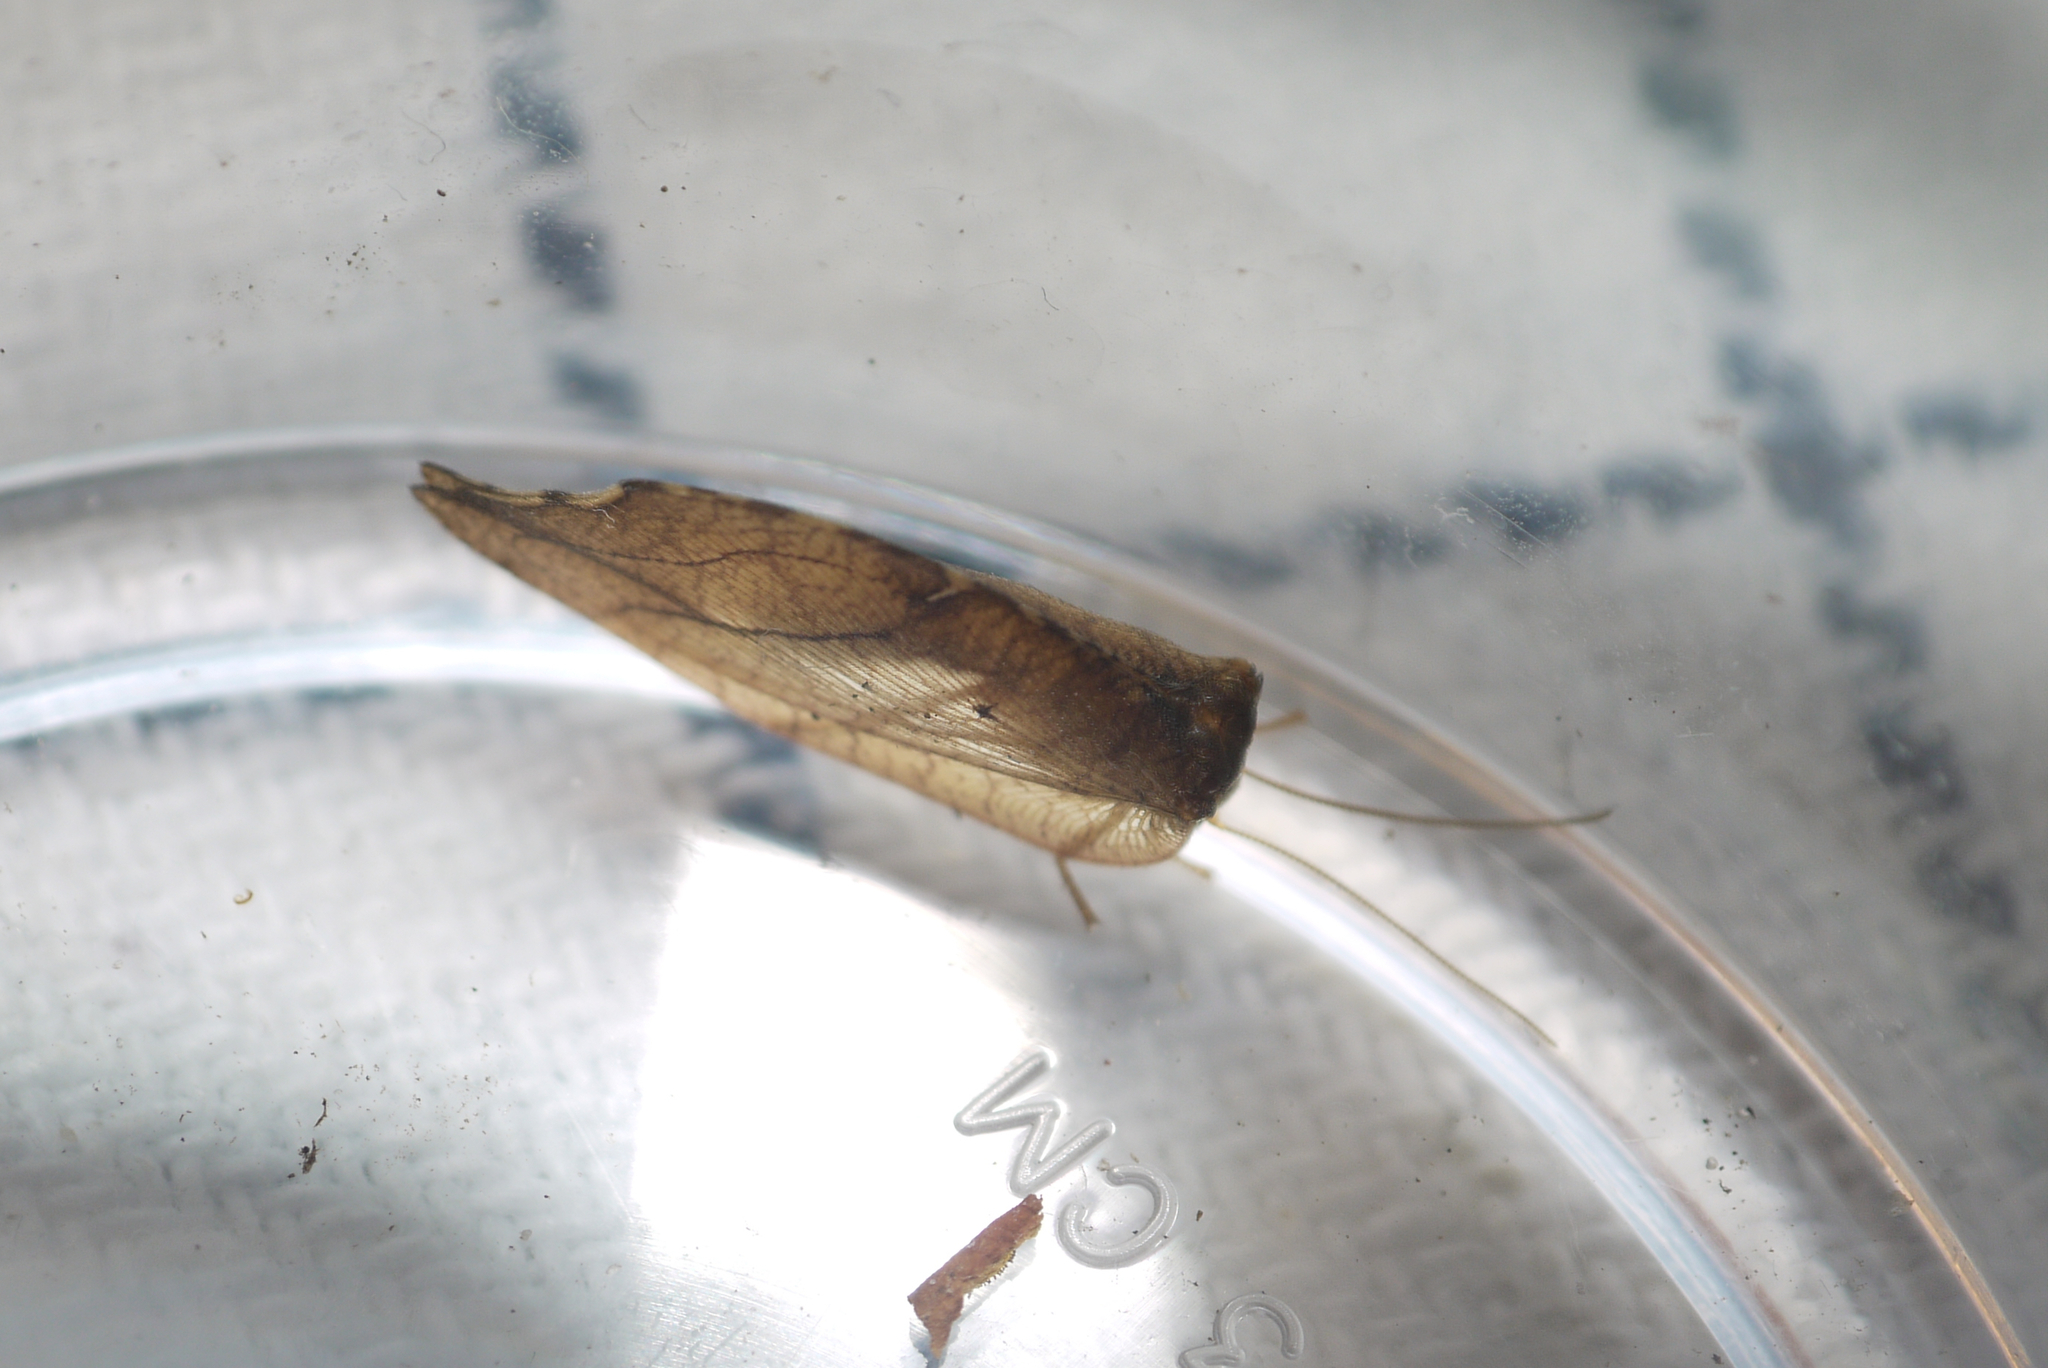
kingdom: Animalia
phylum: Arthropoda
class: Insecta
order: Neuroptera
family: Hemerobiidae
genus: Drepanepteryx
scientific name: Drepanepteryx phalaenoides
